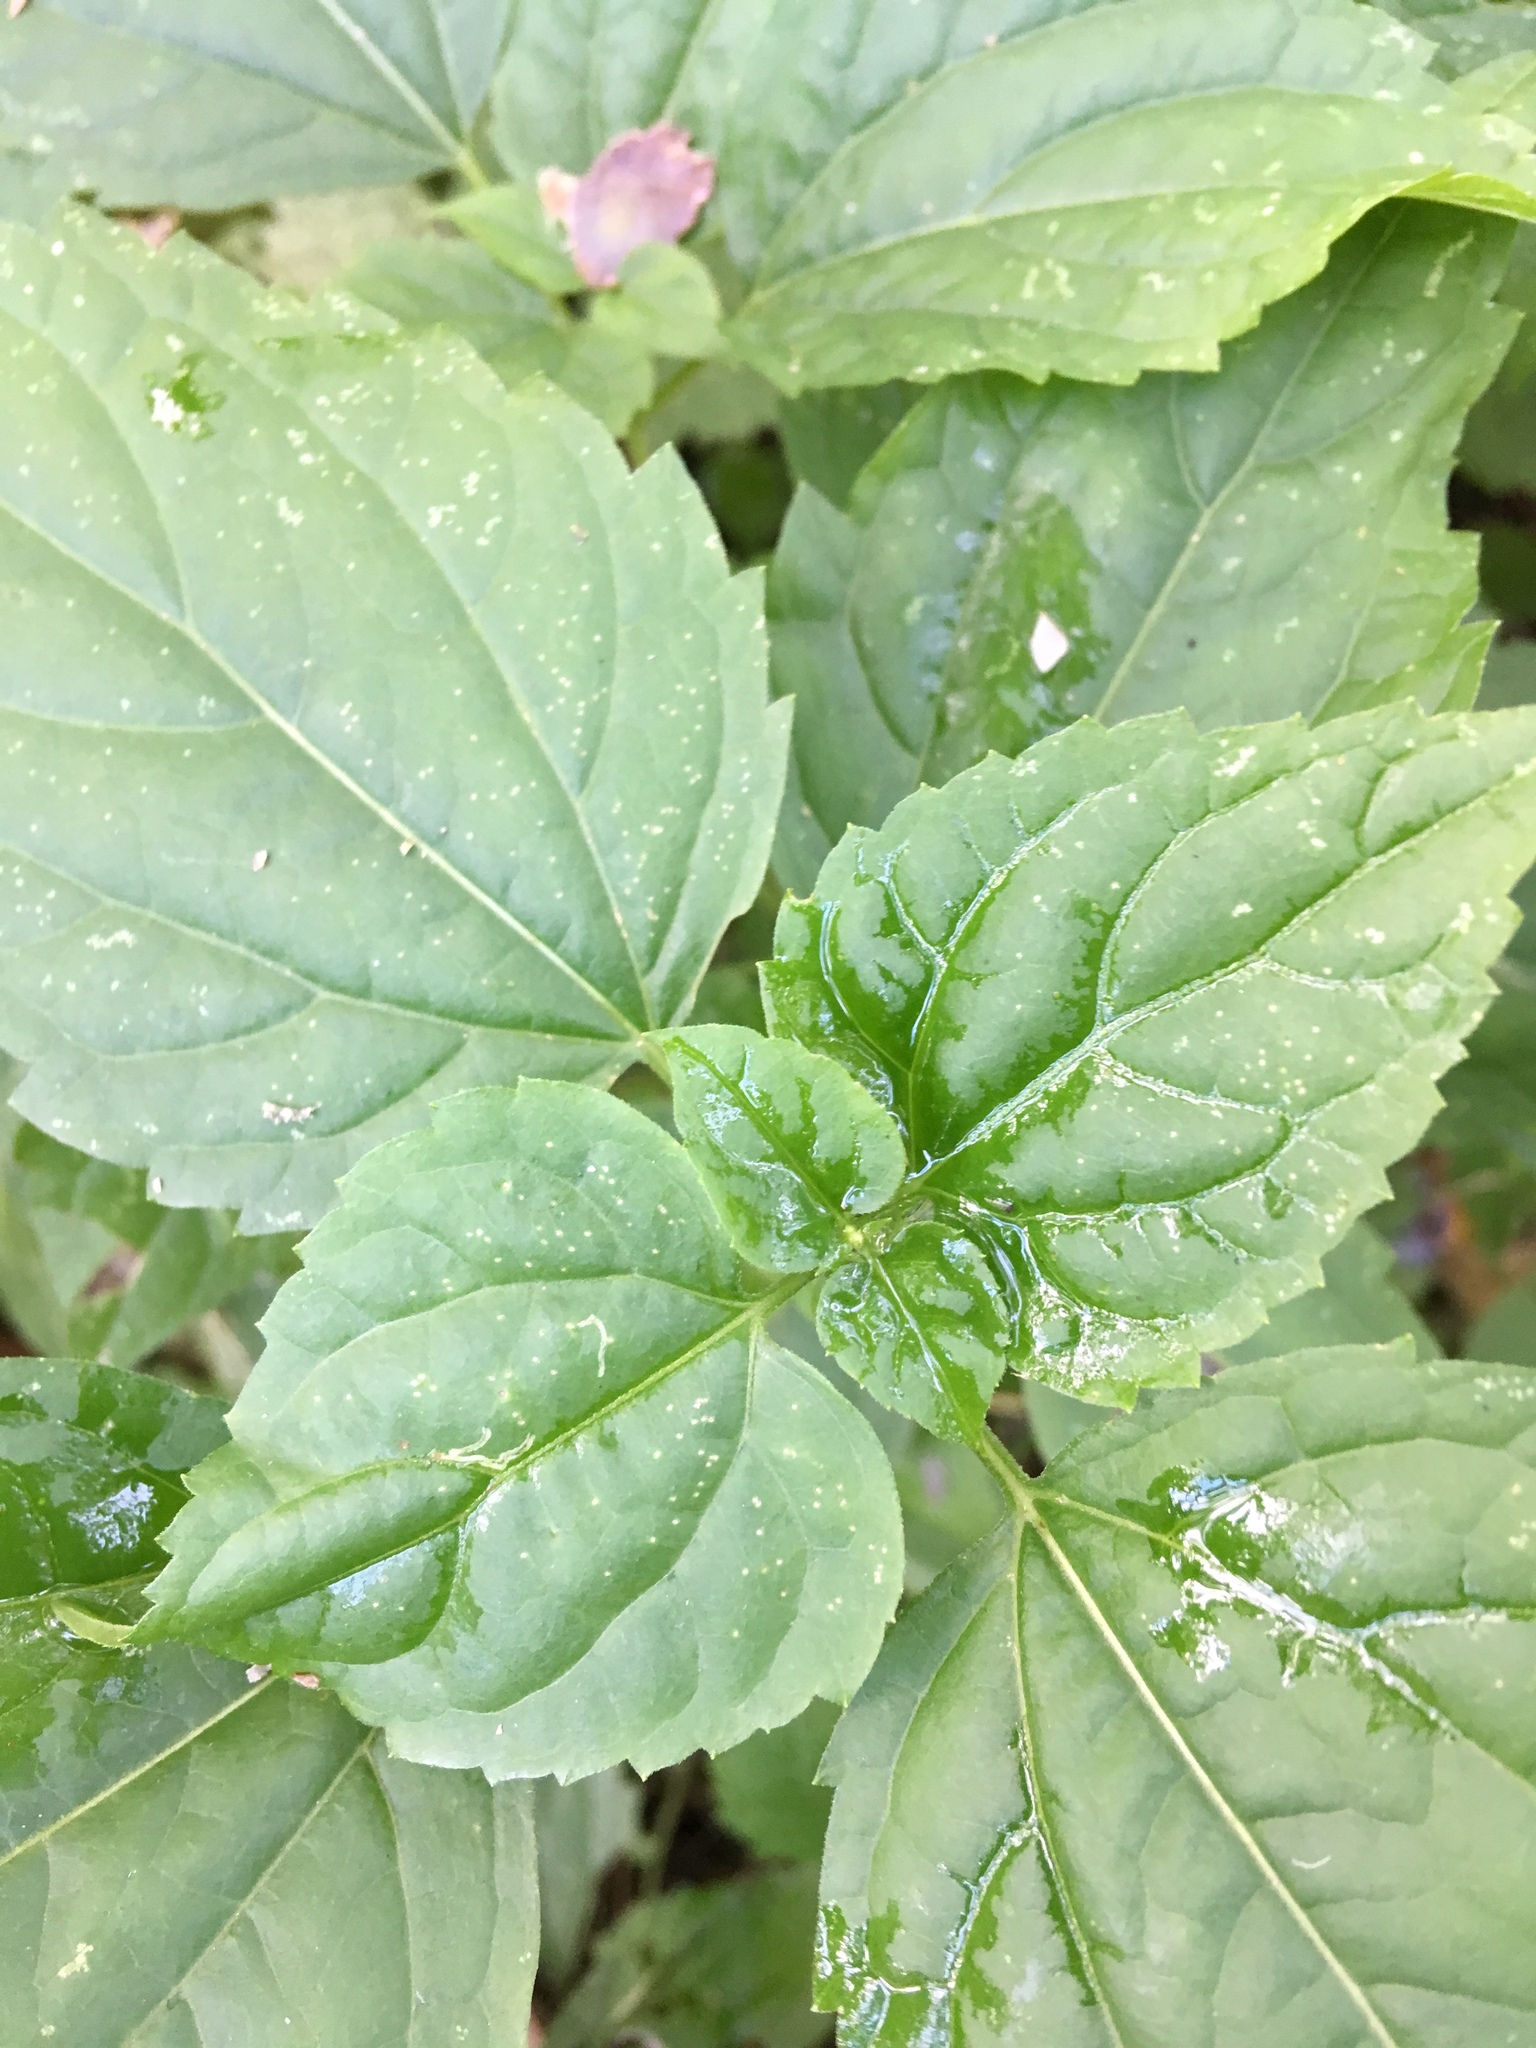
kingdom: Plantae
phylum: Tracheophyta
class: Magnoliopsida
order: Asterales
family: Asteraceae
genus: Ageratina
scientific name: Ageratina altissima
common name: White snakeroot
